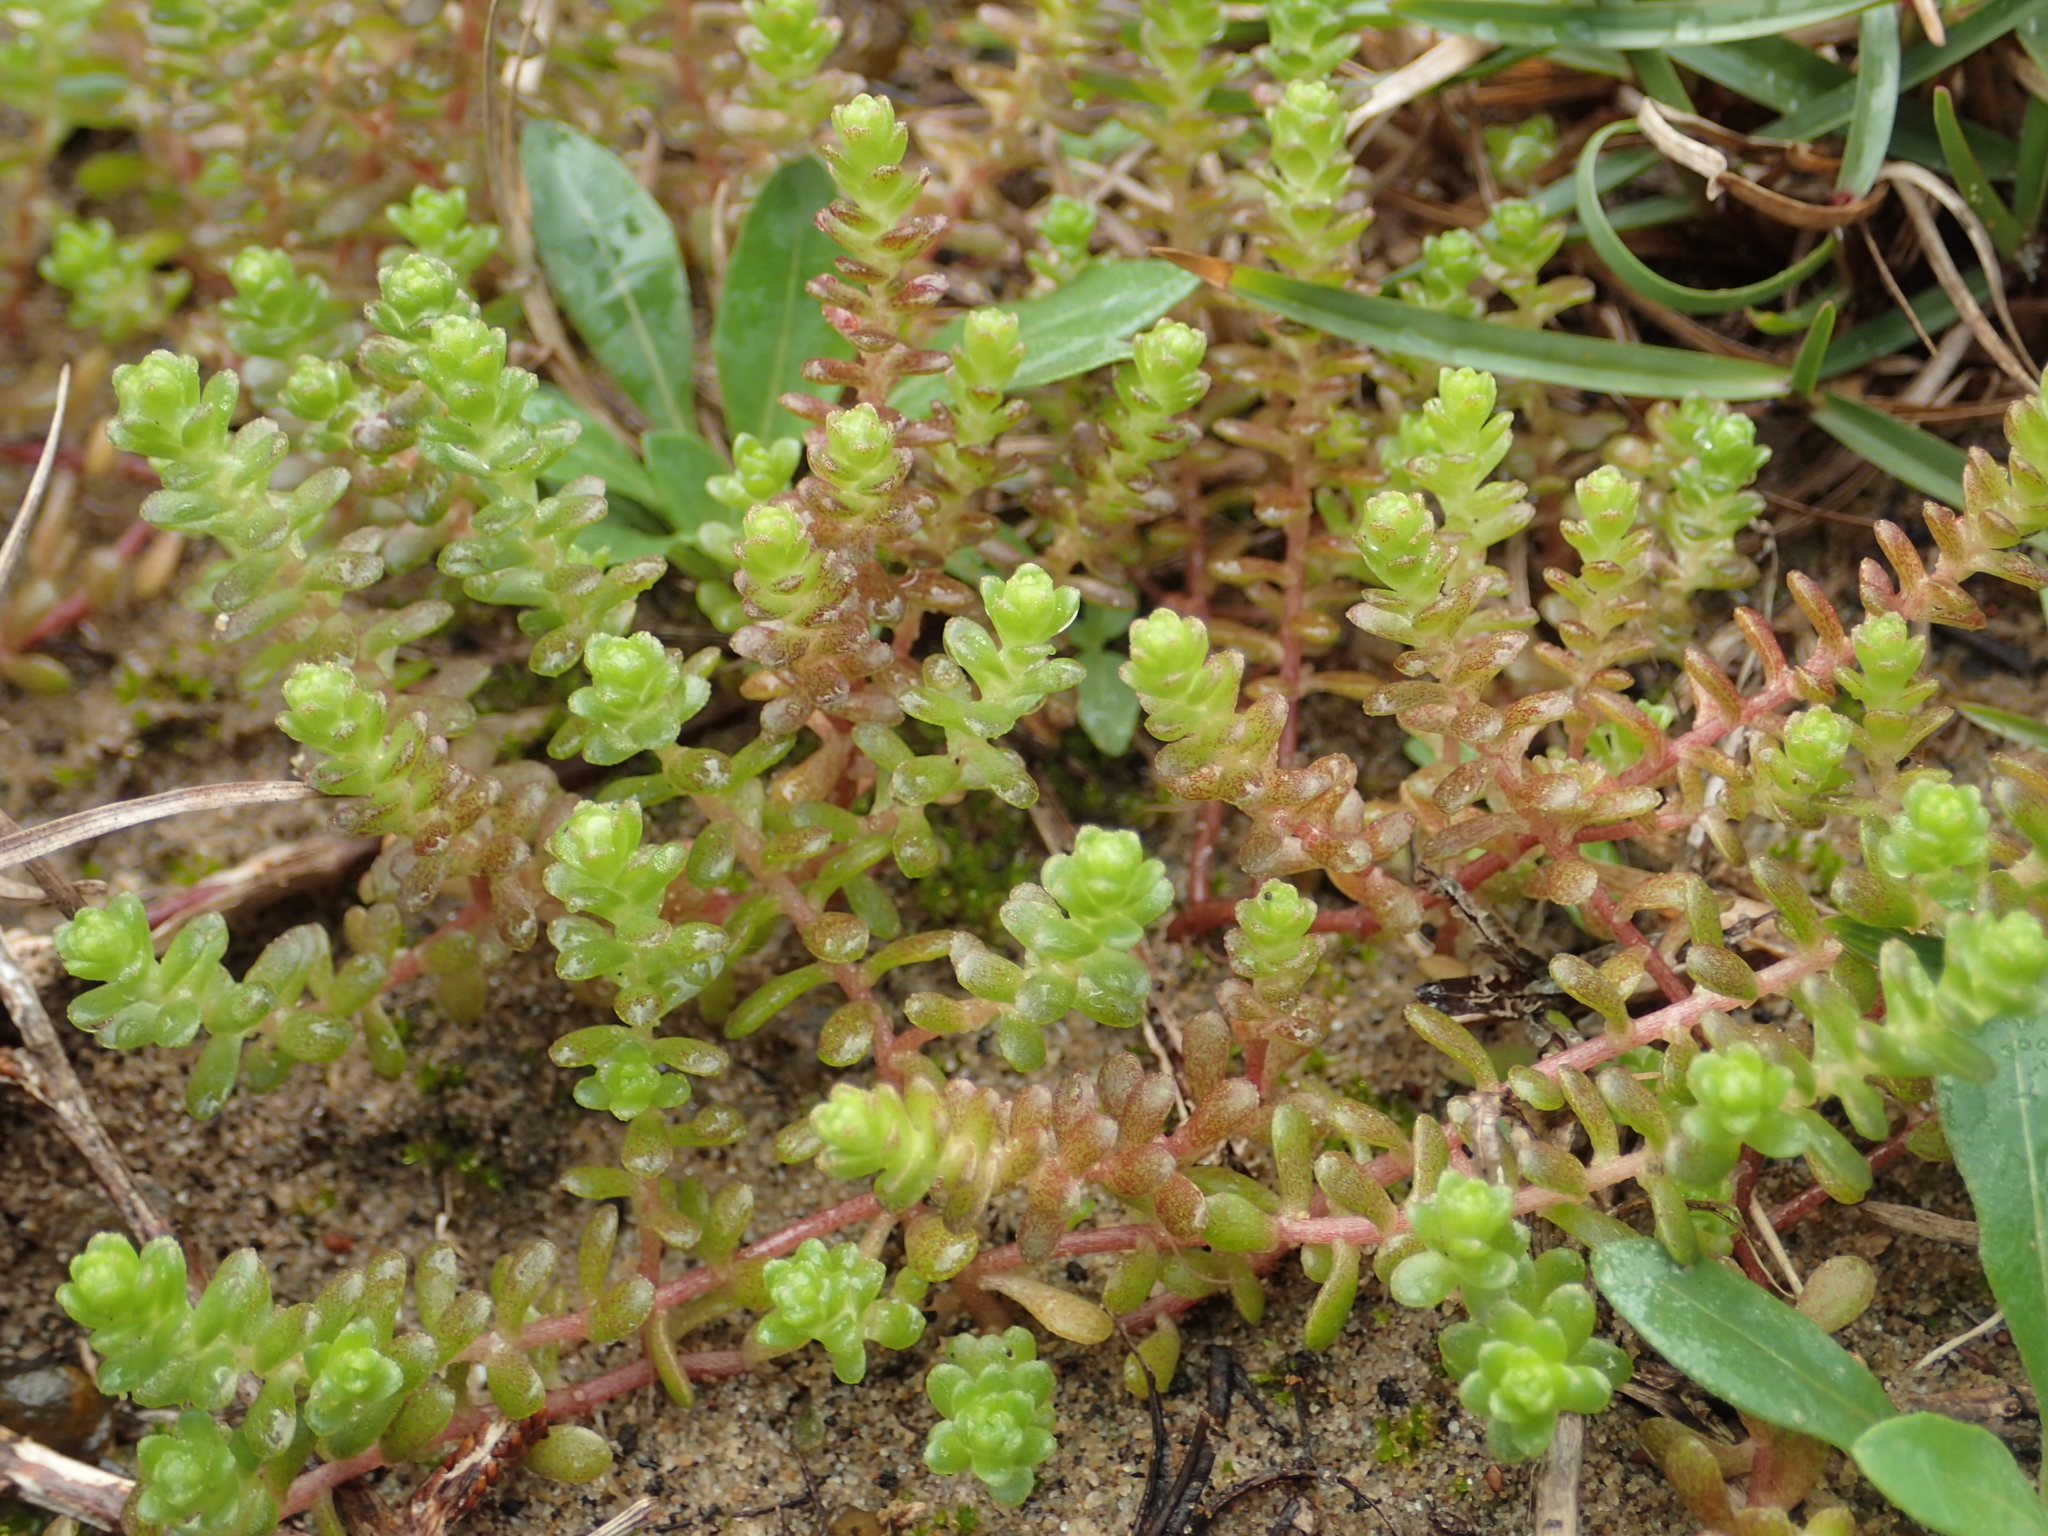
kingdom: Plantae
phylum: Tracheophyta
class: Magnoliopsida
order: Saxifragales
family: Crassulaceae
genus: Sedum
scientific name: Sedum japonicum
